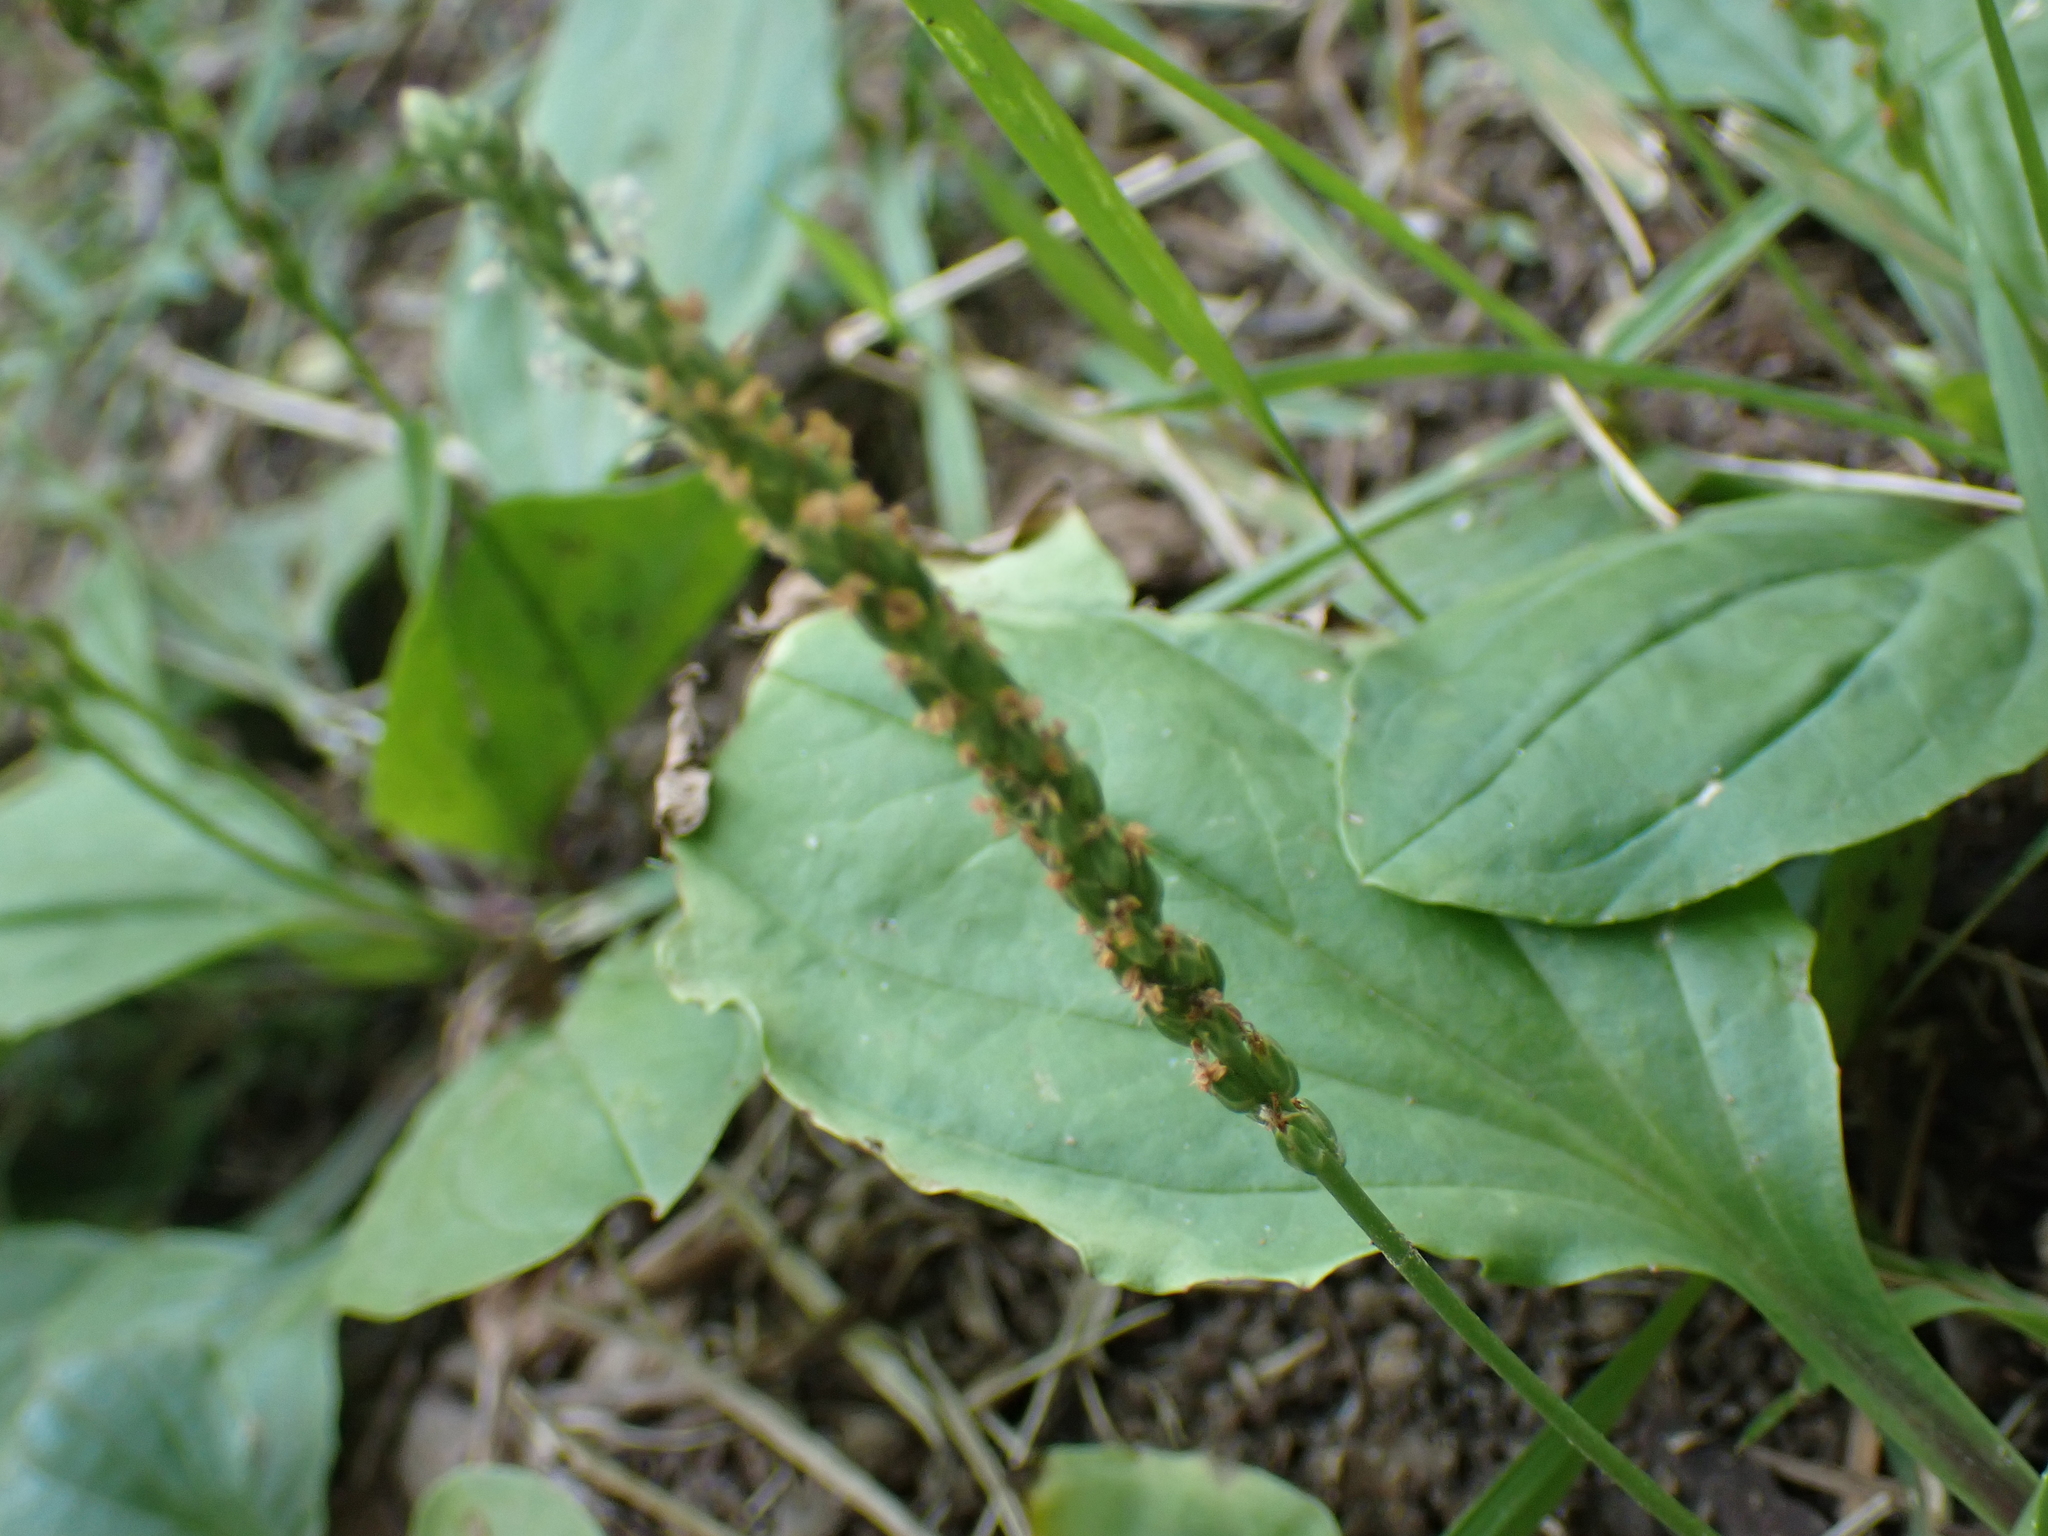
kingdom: Plantae
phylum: Tracheophyta
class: Magnoliopsida
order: Lamiales
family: Plantaginaceae
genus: Plantago
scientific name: Plantago rugelii
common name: American plantain
